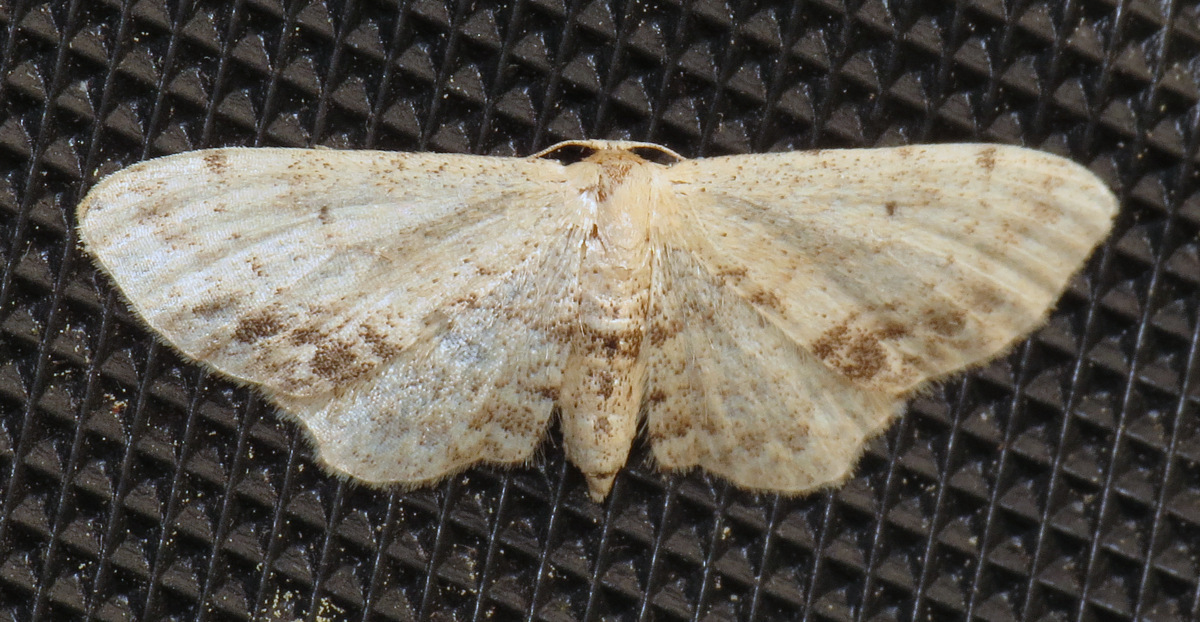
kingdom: Animalia
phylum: Arthropoda
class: Insecta
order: Lepidoptera
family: Geometridae
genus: Idaea
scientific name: Idaea dimidiata
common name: Single-dotted wave
